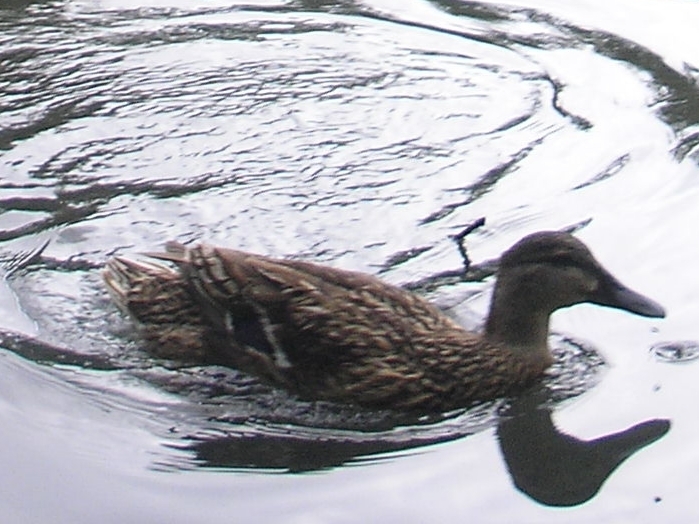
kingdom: Animalia
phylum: Chordata
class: Aves
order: Anseriformes
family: Anatidae
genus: Anas
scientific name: Anas platyrhynchos
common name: Mallard
